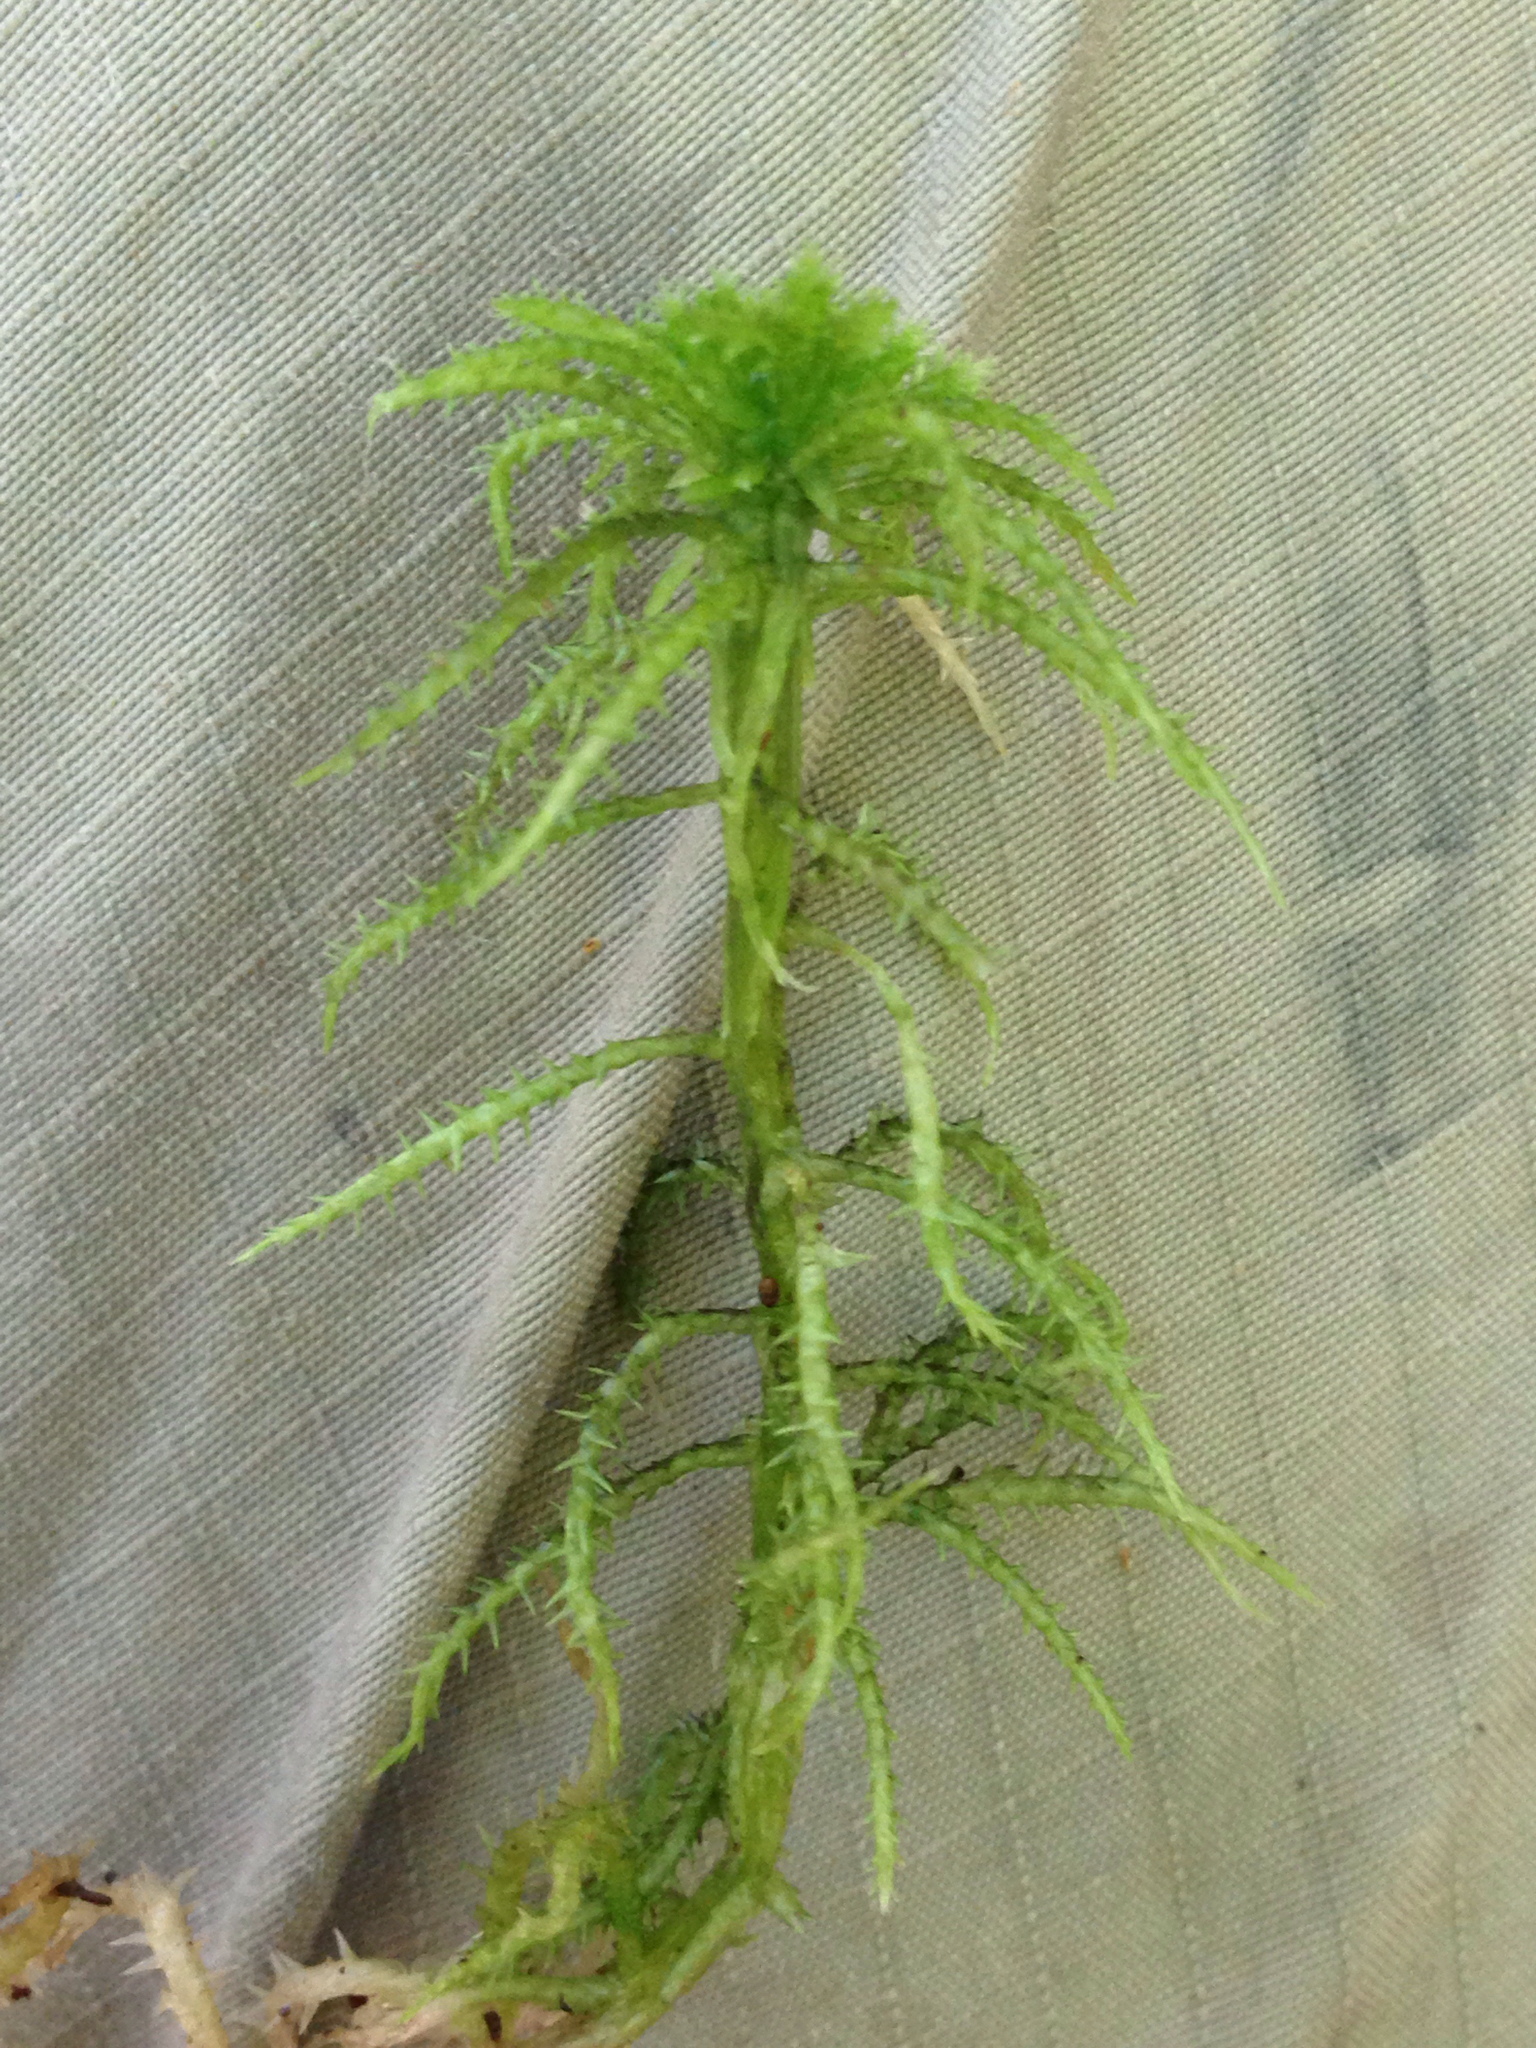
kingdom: Plantae
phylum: Bryophyta
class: Sphagnopsida
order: Sphagnales
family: Sphagnaceae
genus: Sphagnum
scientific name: Sphagnum squarrosum
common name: Shaggy peat moss
